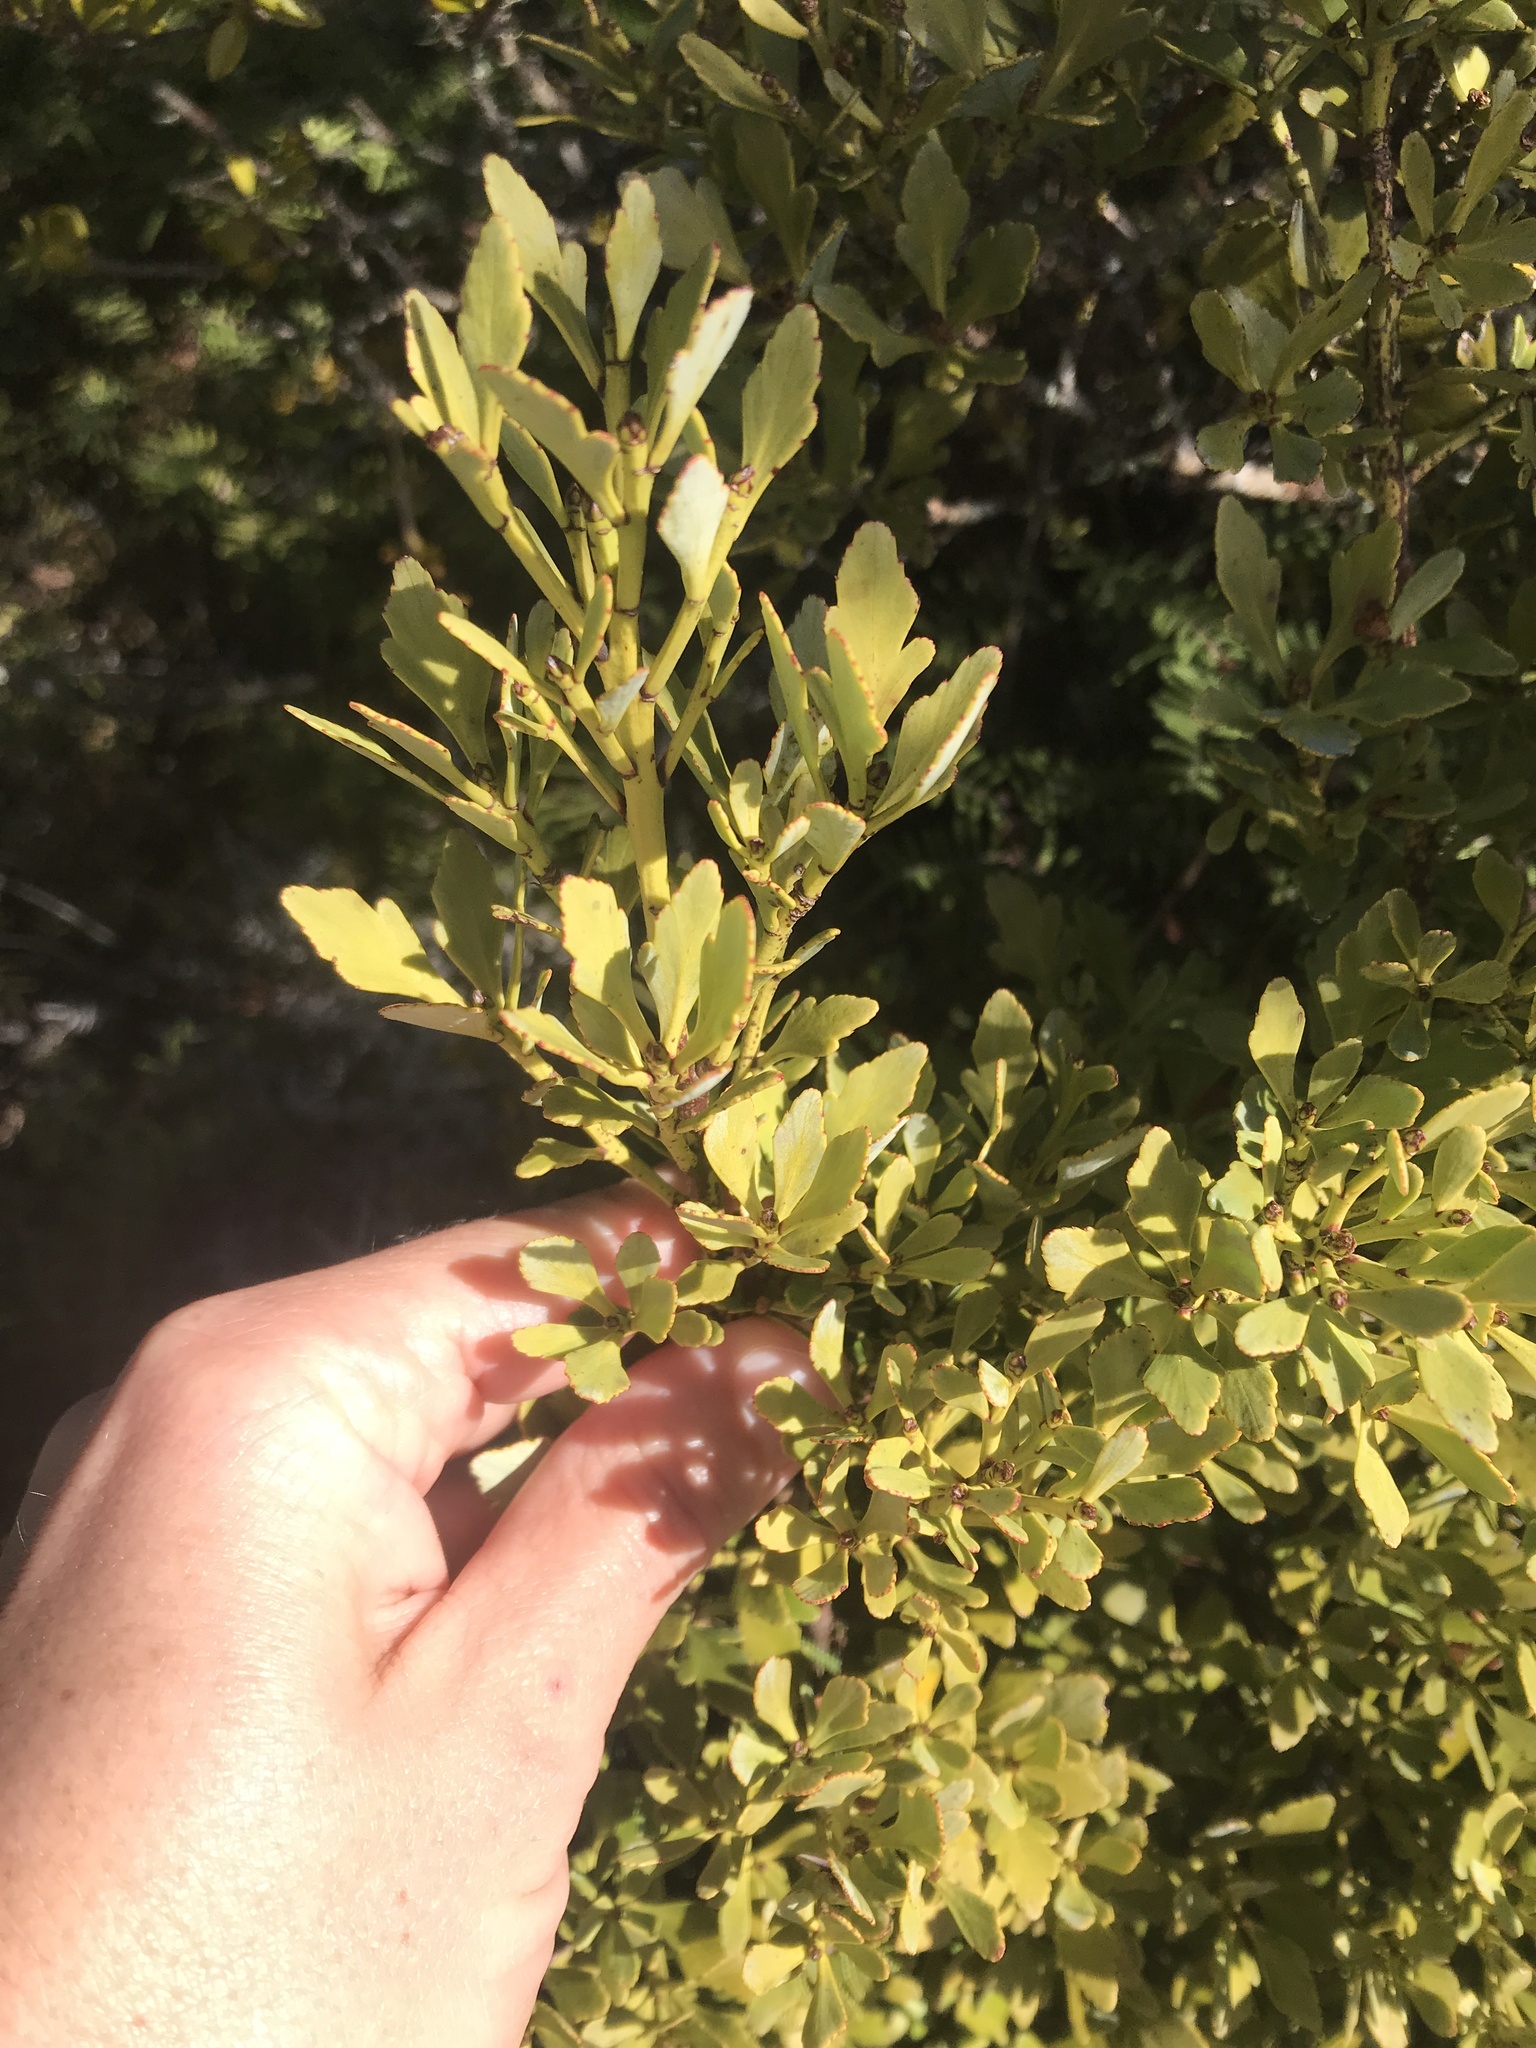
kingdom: Plantae
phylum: Tracheophyta
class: Pinopsida
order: Pinales
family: Phyllocladaceae
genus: Phyllocladus
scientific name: Phyllocladus trichomanoides
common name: Celery pine
